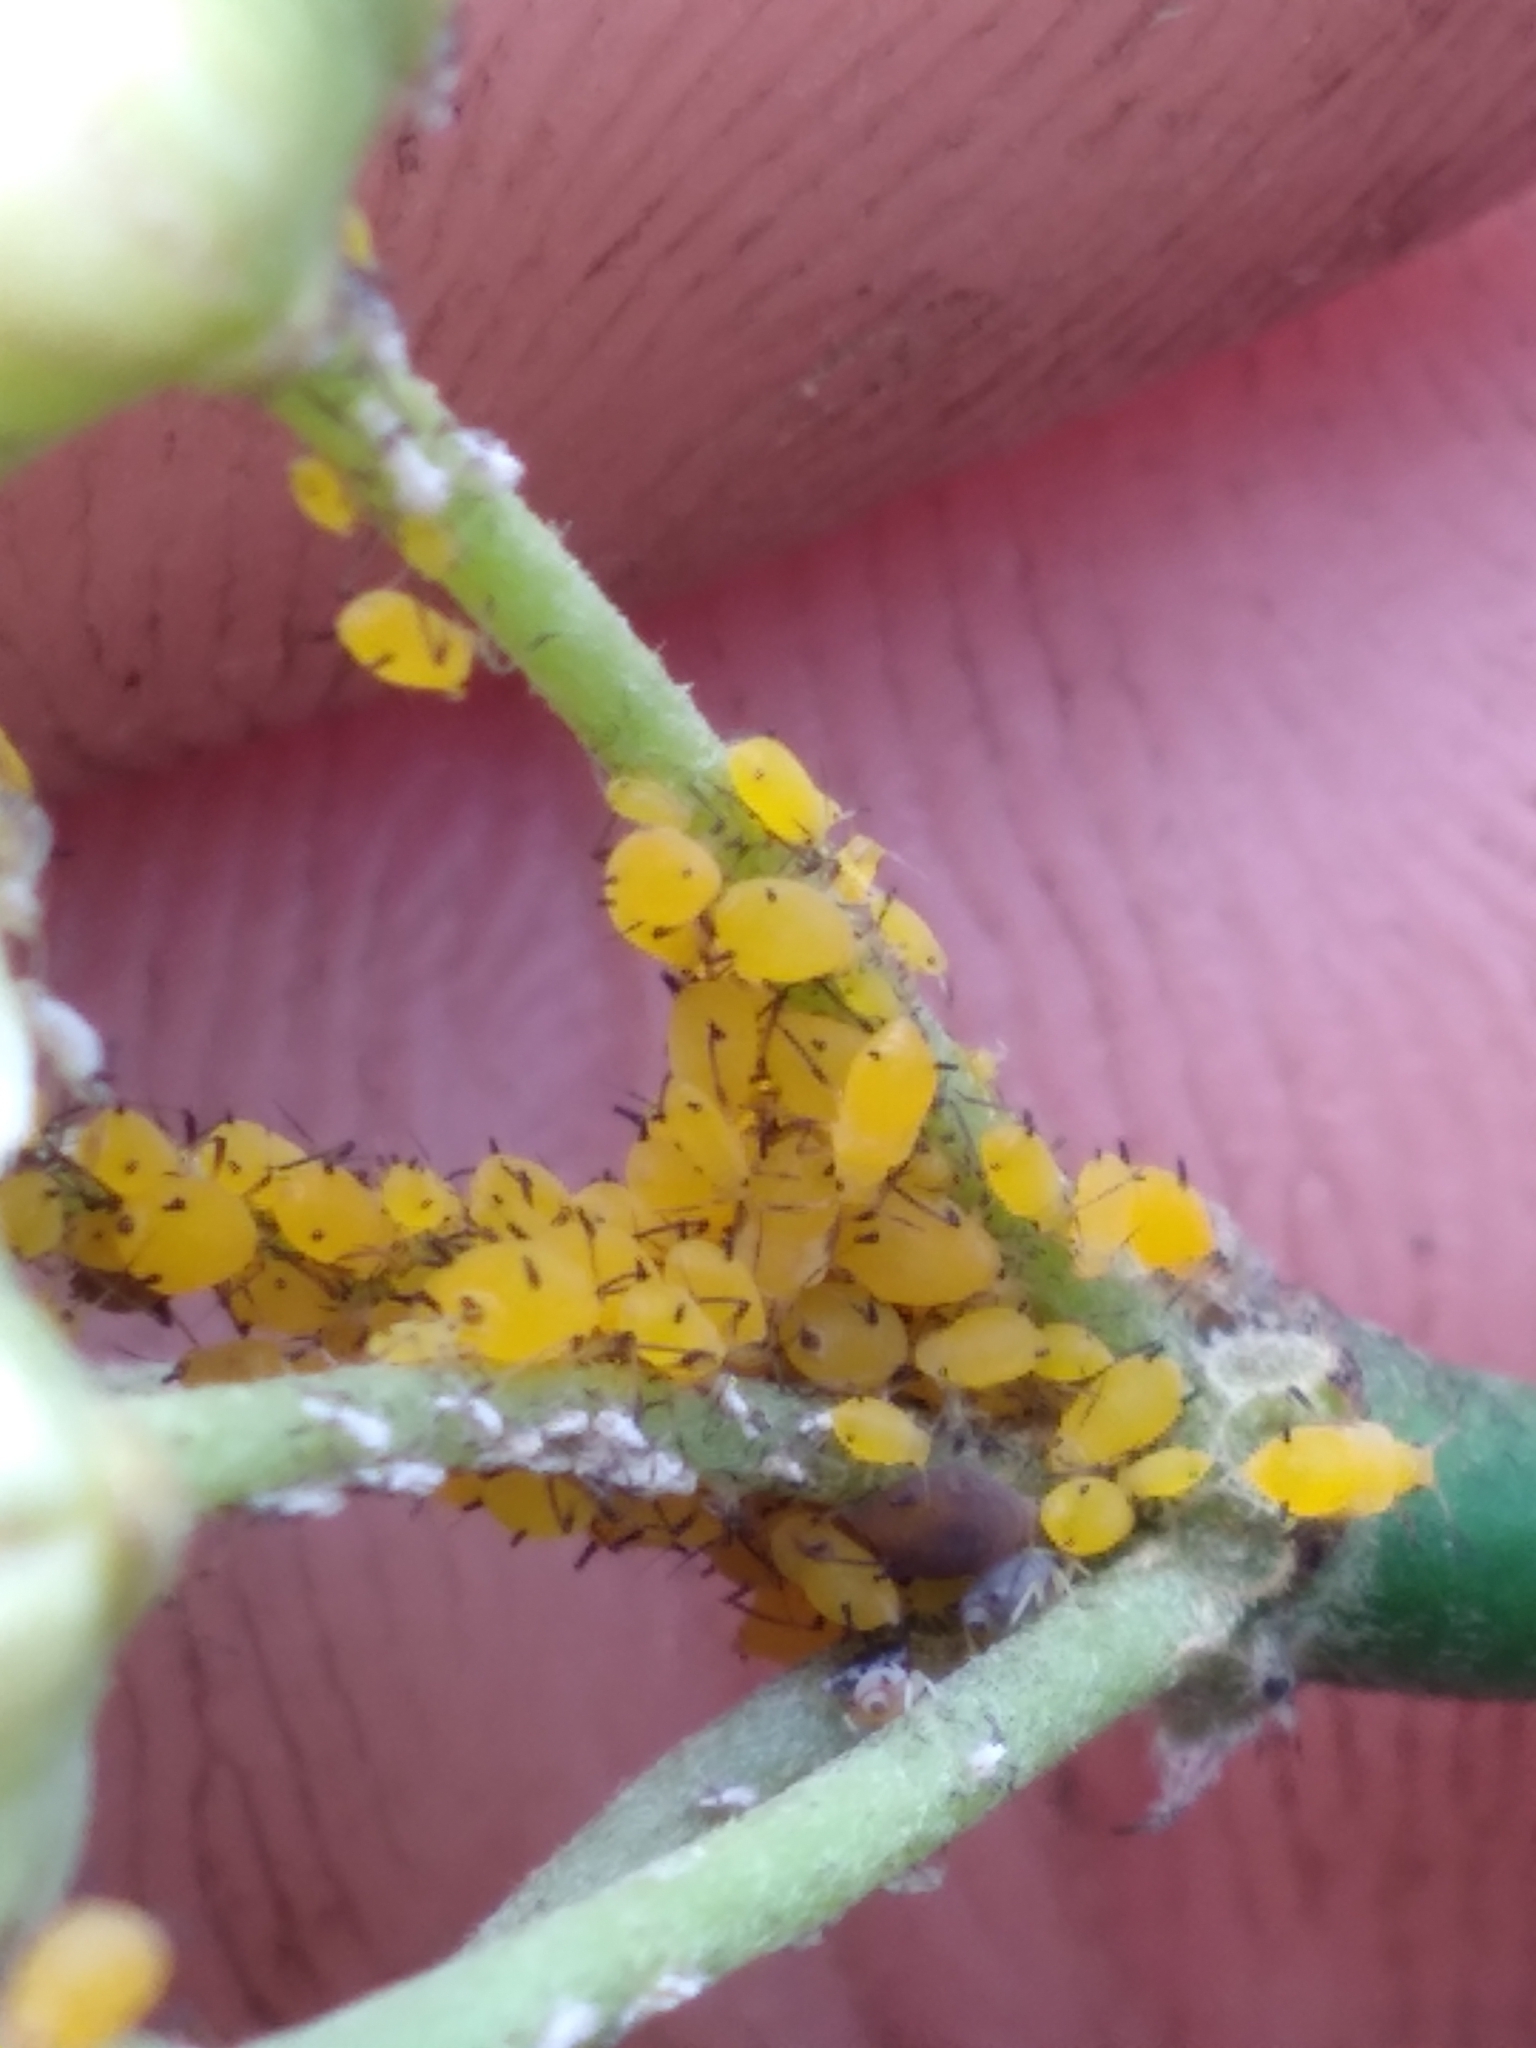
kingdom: Plantae
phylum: Tracheophyta
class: Magnoliopsida
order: Gentianales
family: Apocynaceae
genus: Funastrum
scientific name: Funastrum clausum
